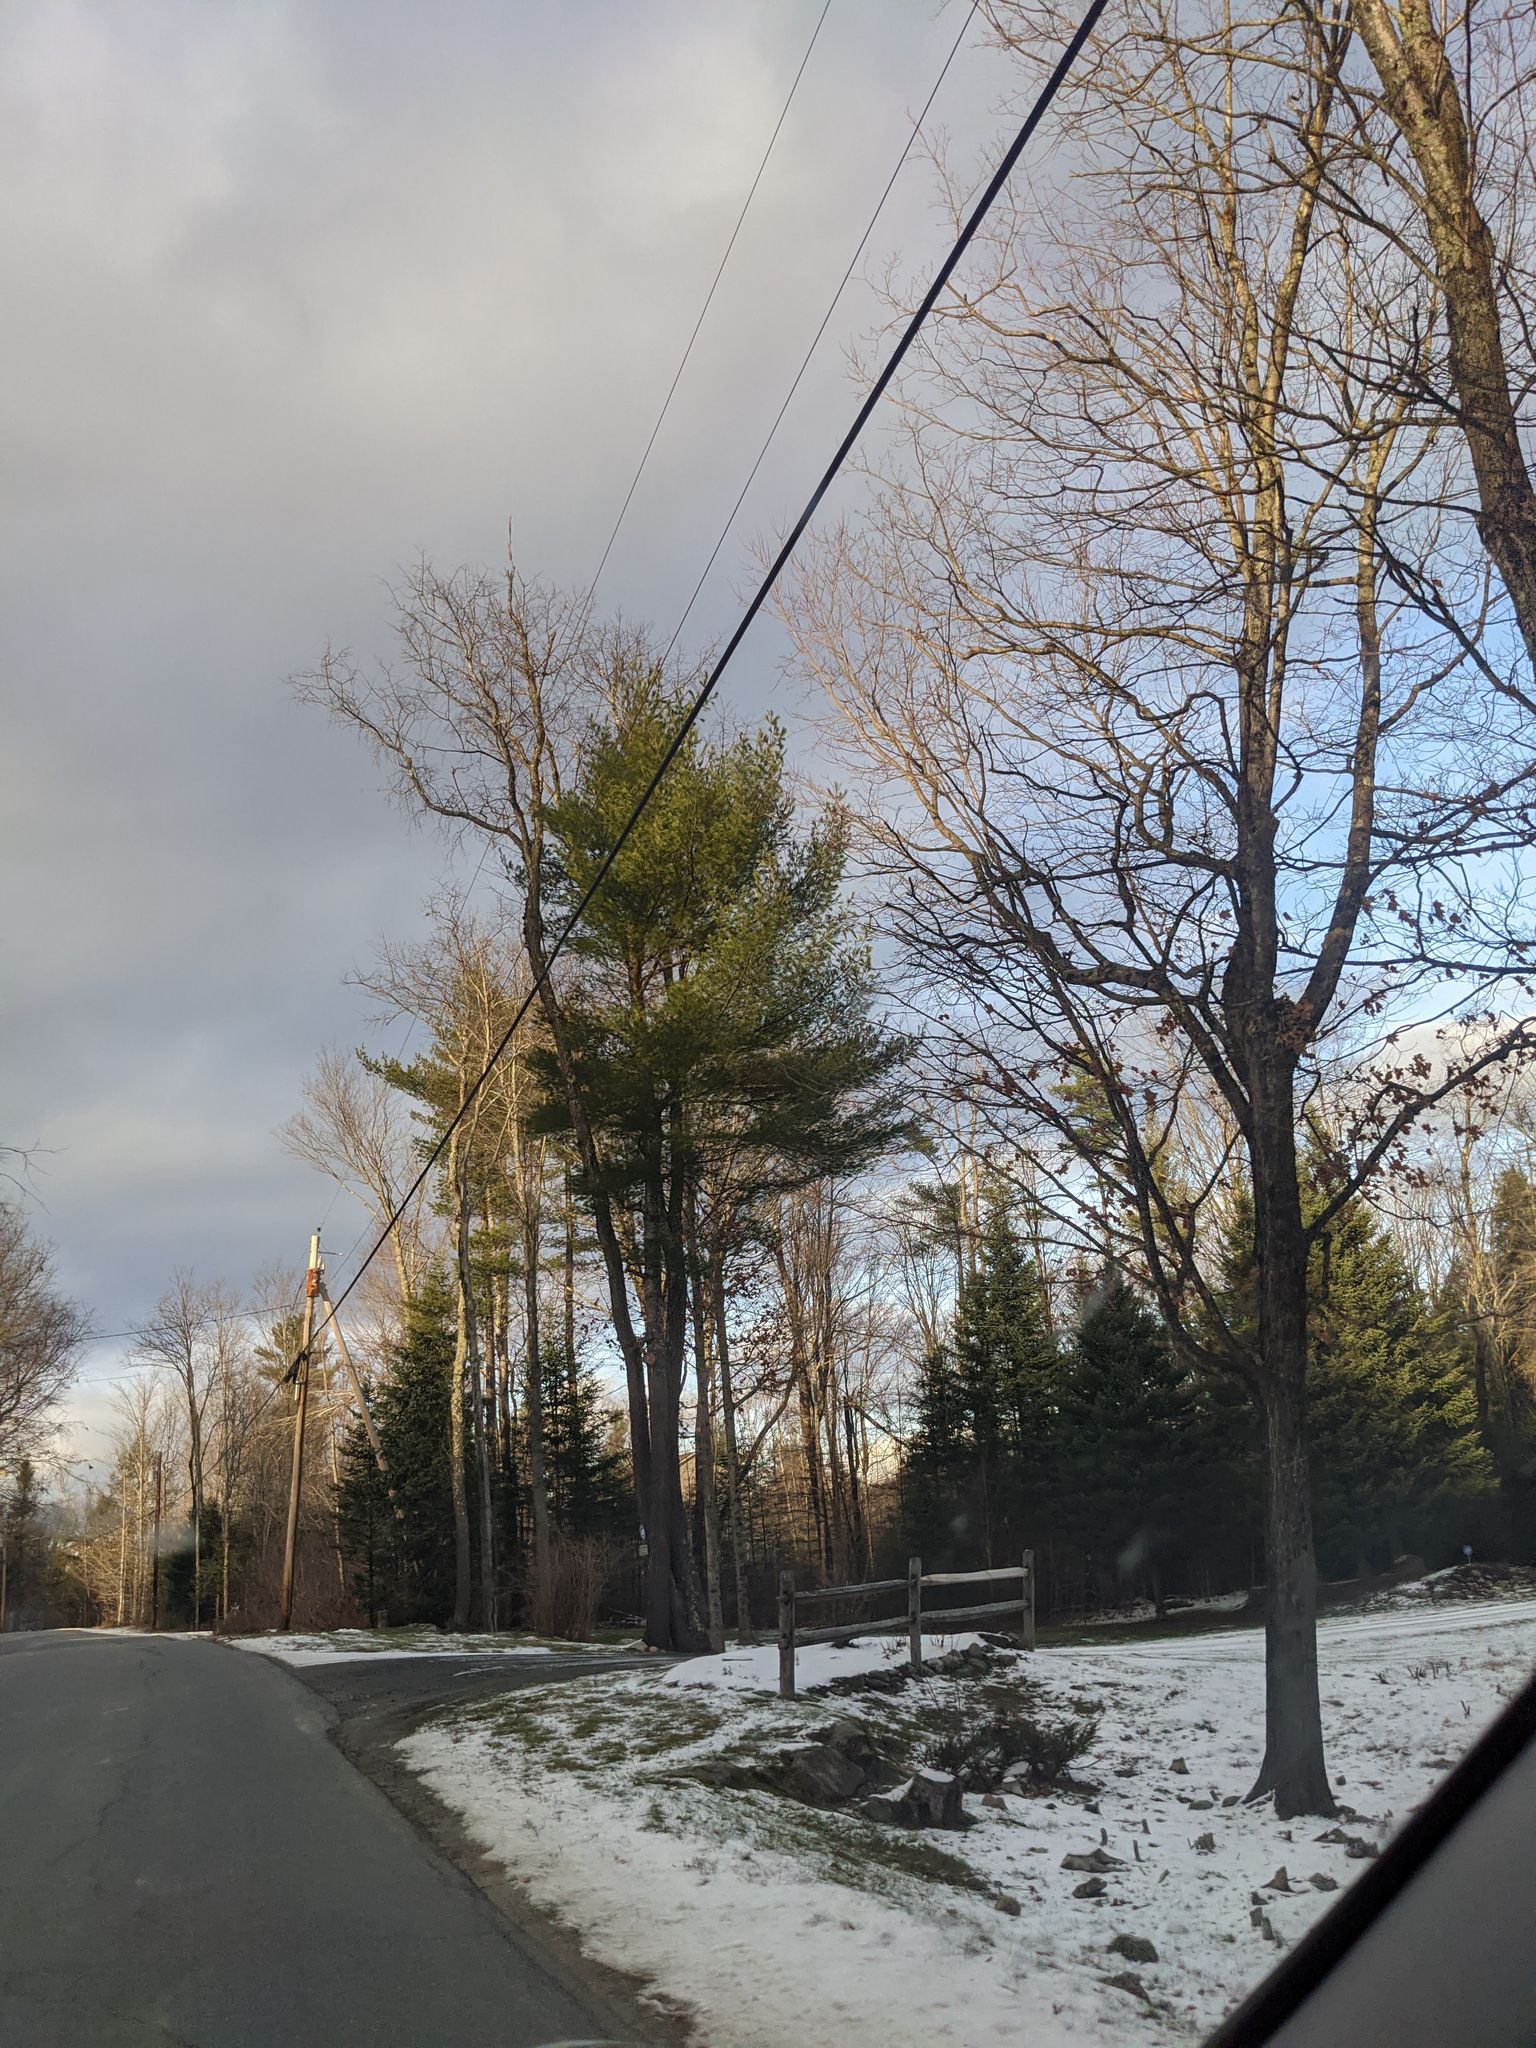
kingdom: Plantae
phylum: Tracheophyta
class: Pinopsida
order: Pinales
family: Pinaceae
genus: Pinus
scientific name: Pinus strobus
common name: Weymouth pine
